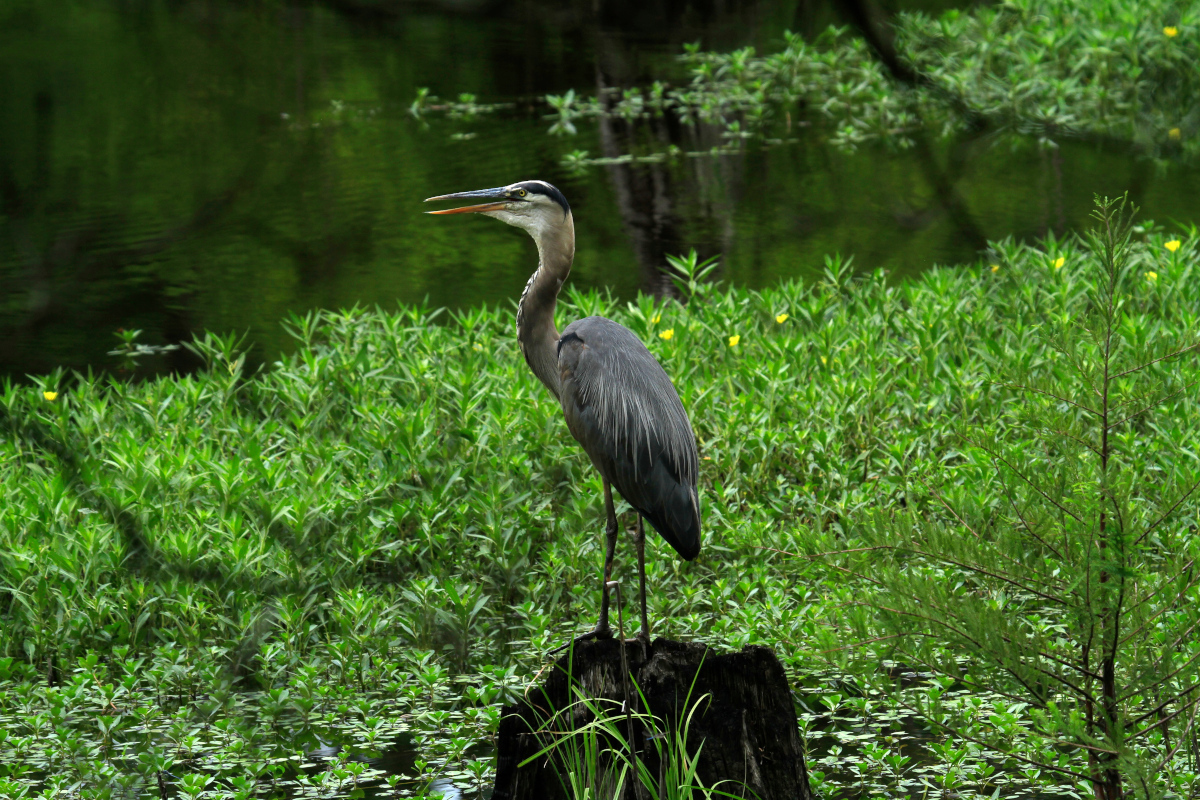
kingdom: Animalia
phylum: Chordata
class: Aves
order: Pelecaniformes
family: Ardeidae
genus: Ardea
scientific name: Ardea herodias
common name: Great blue heron
